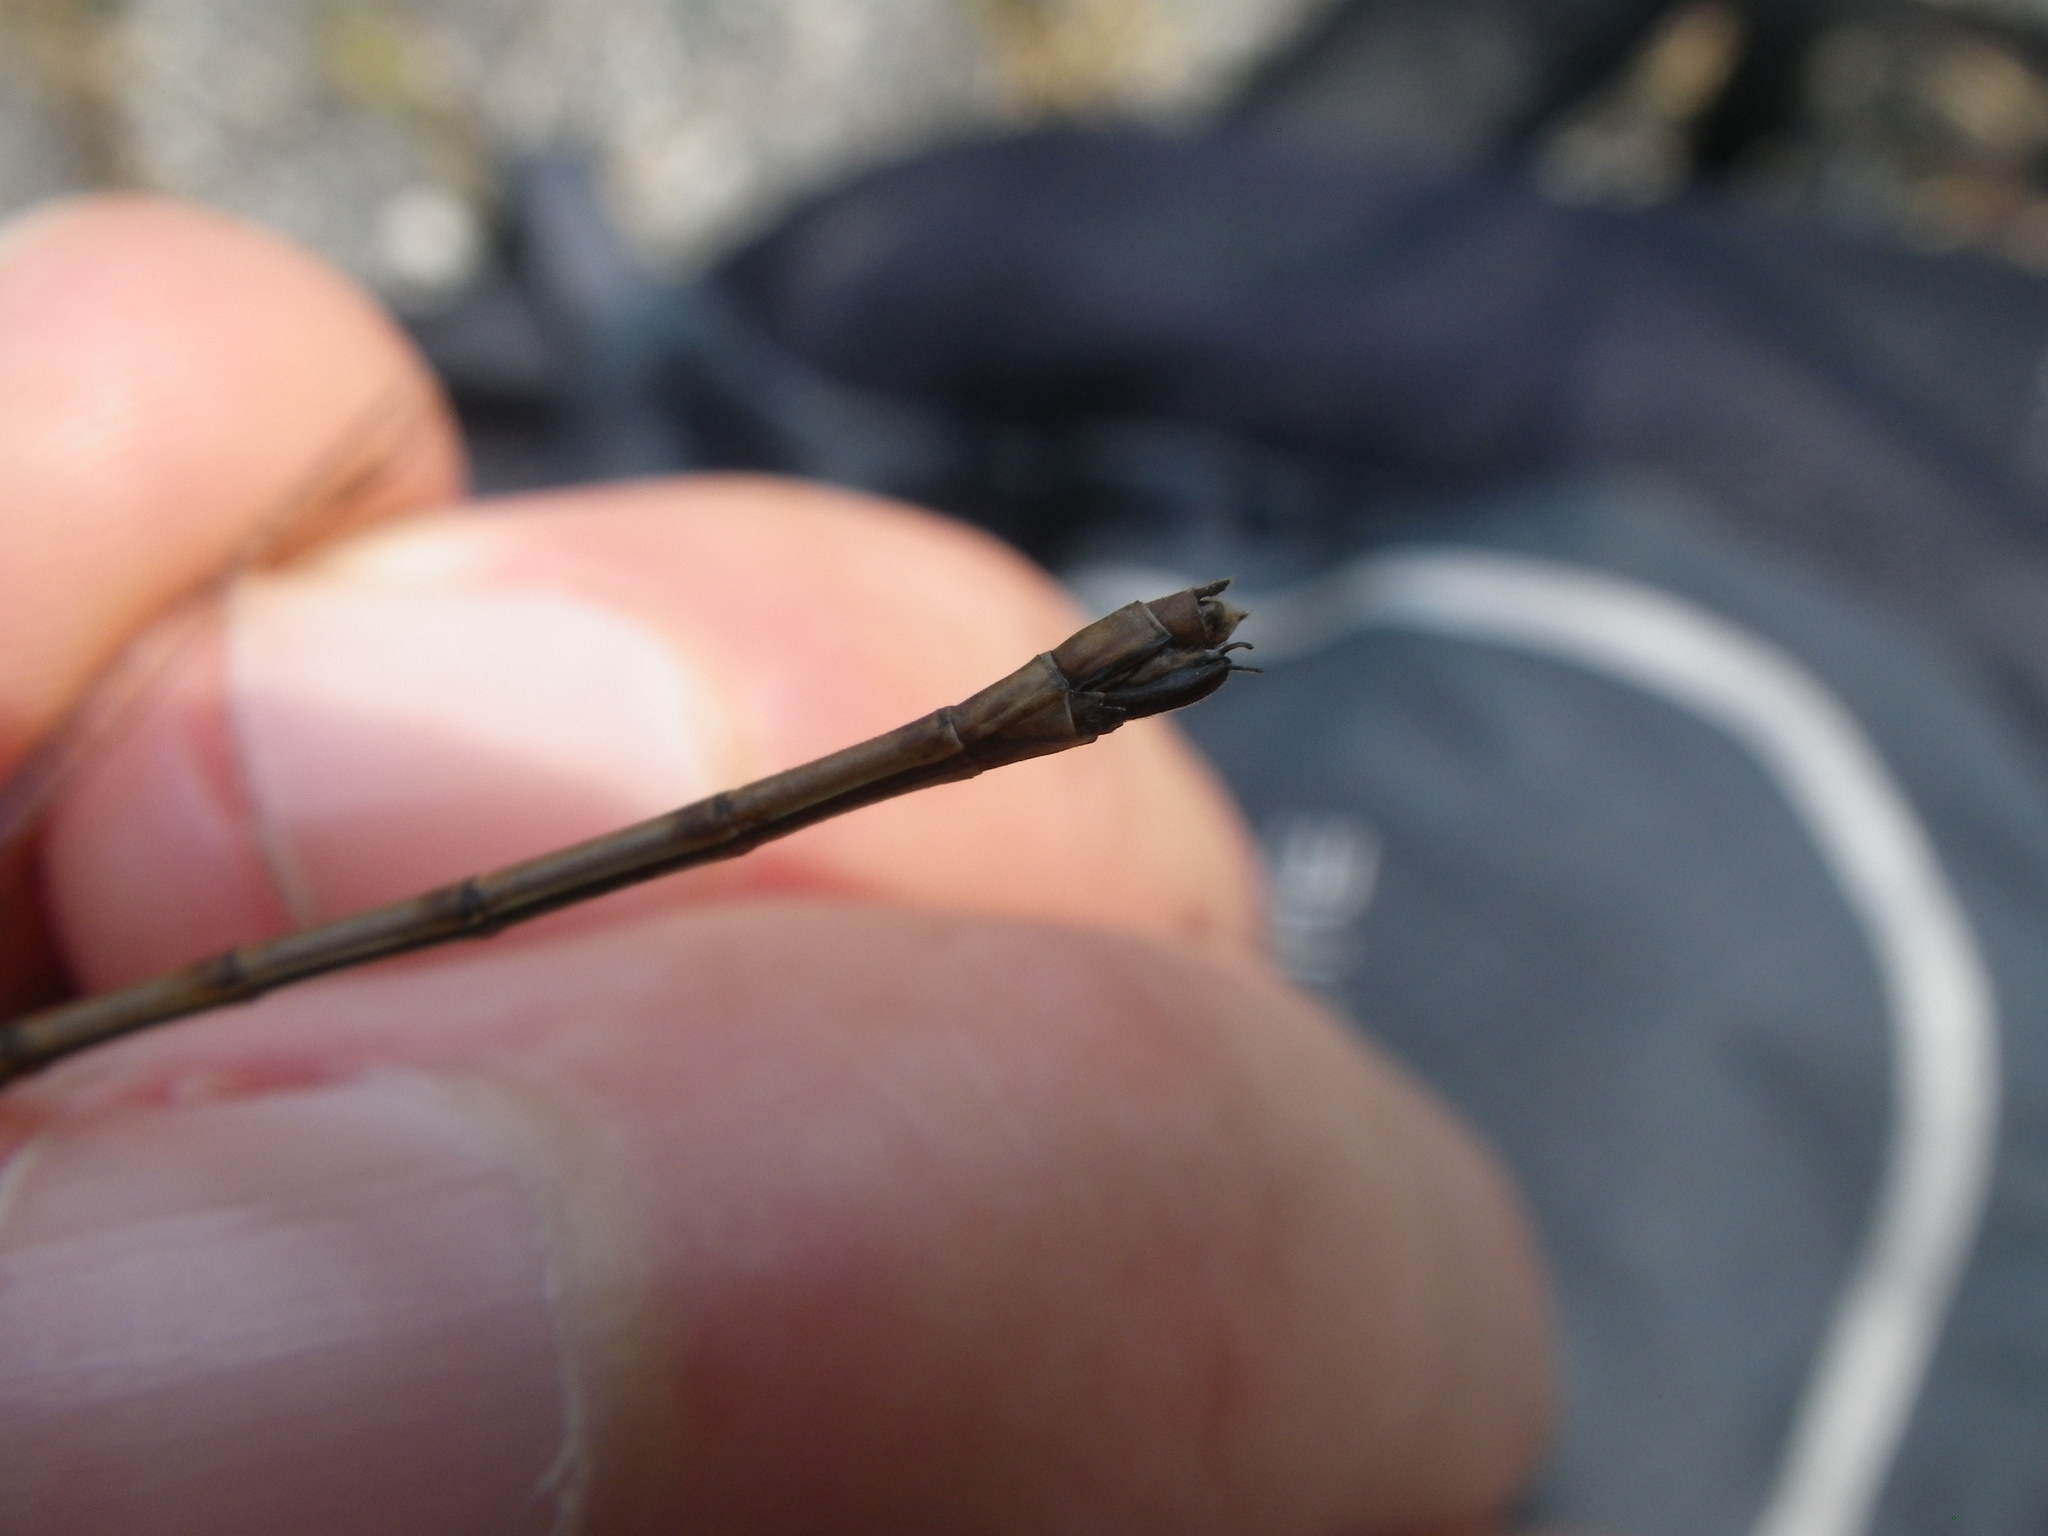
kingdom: Animalia
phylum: Arthropoda
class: Insecta
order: Odonata
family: Lestidae
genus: Lestes
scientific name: Lestes rectangularis
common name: Slender spreadwing
